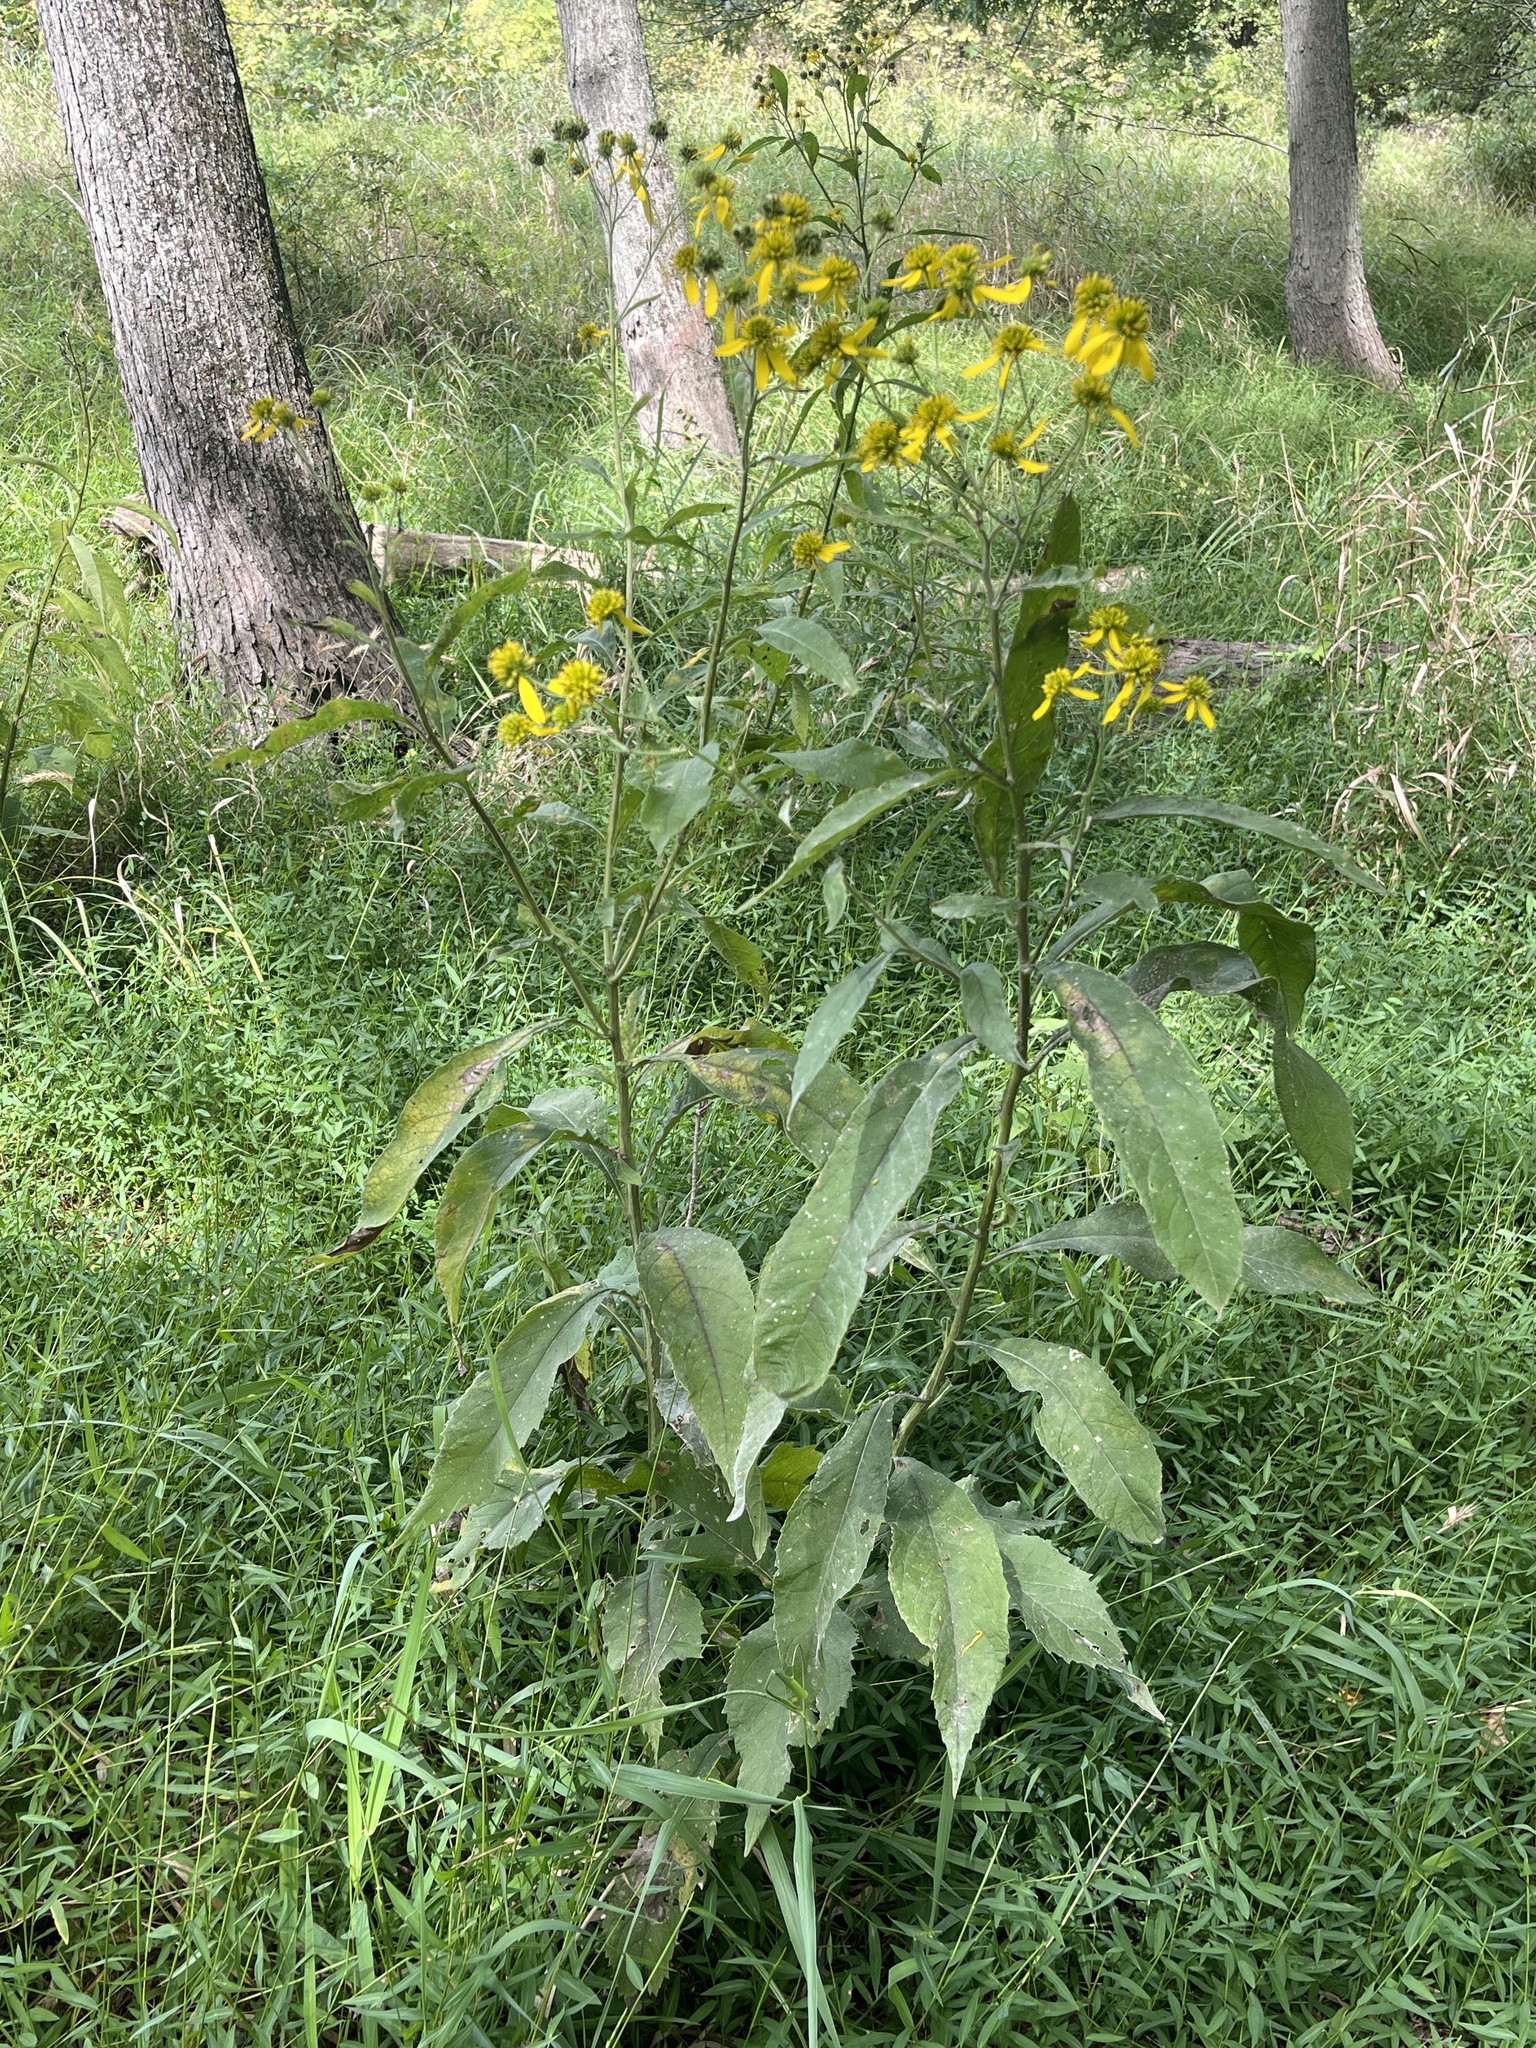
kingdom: Plantae
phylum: Tracheophyta
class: Magnoliopsida
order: Asterales
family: Asteraceae
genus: Verbesina
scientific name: Verbesina alternifolia
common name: Wingstem
